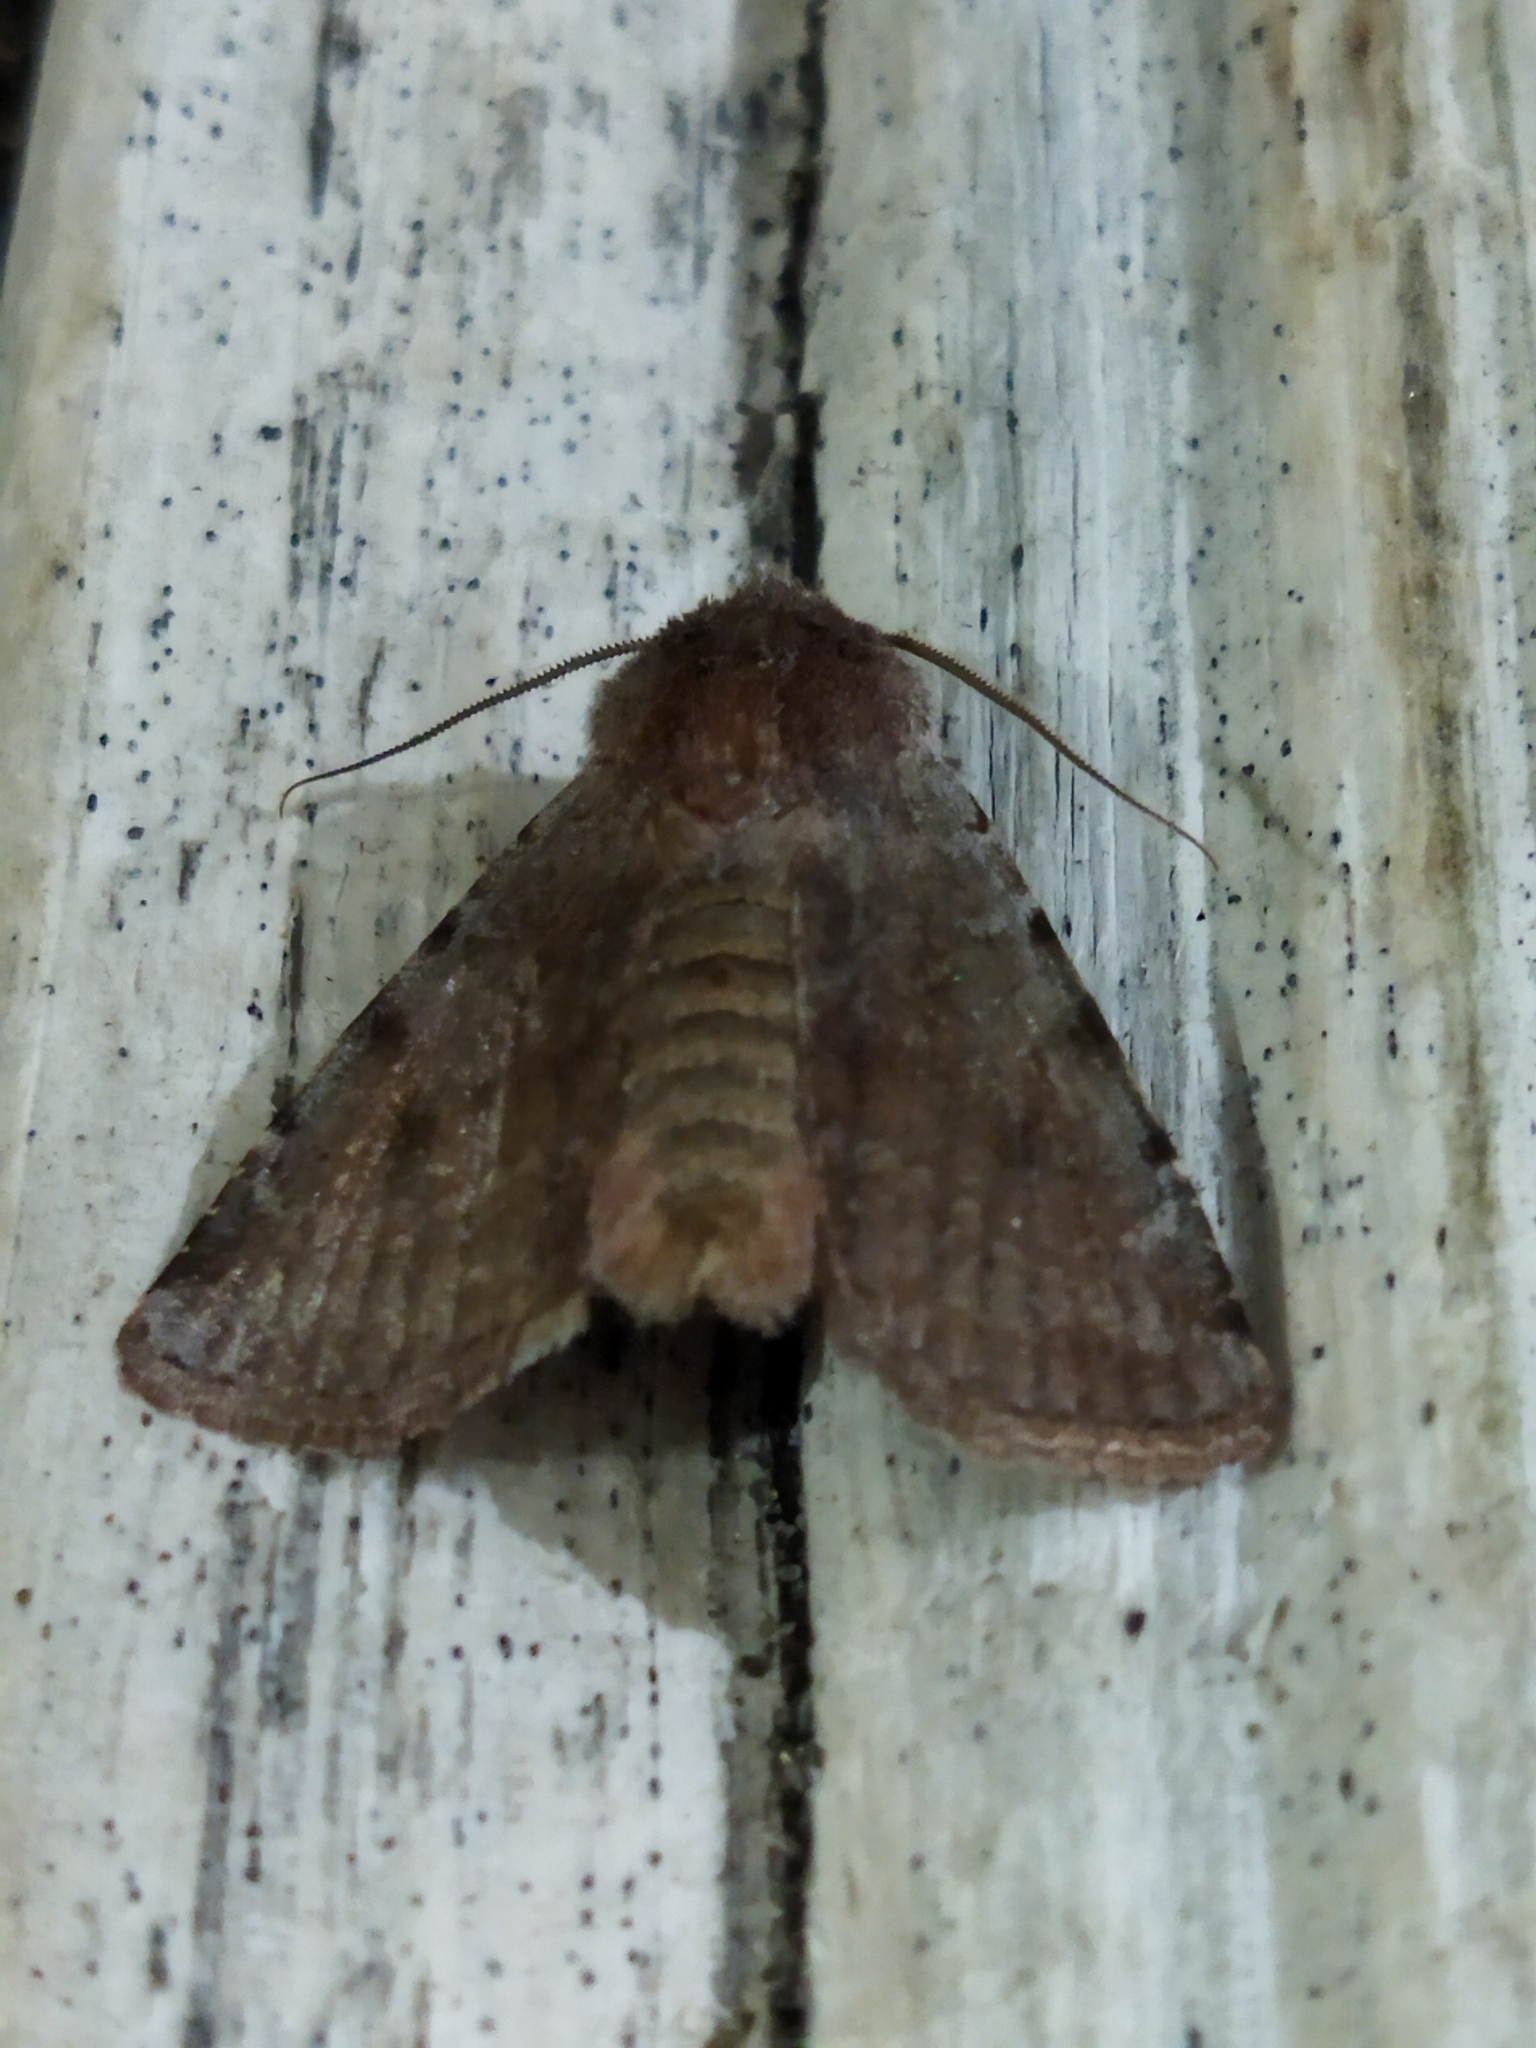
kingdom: Animalia
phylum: Arthropoda
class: Insecta
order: Lepidoptera
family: Noctuidae
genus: Cerastis
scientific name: Cerastis rubricosa
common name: Red chestnut
